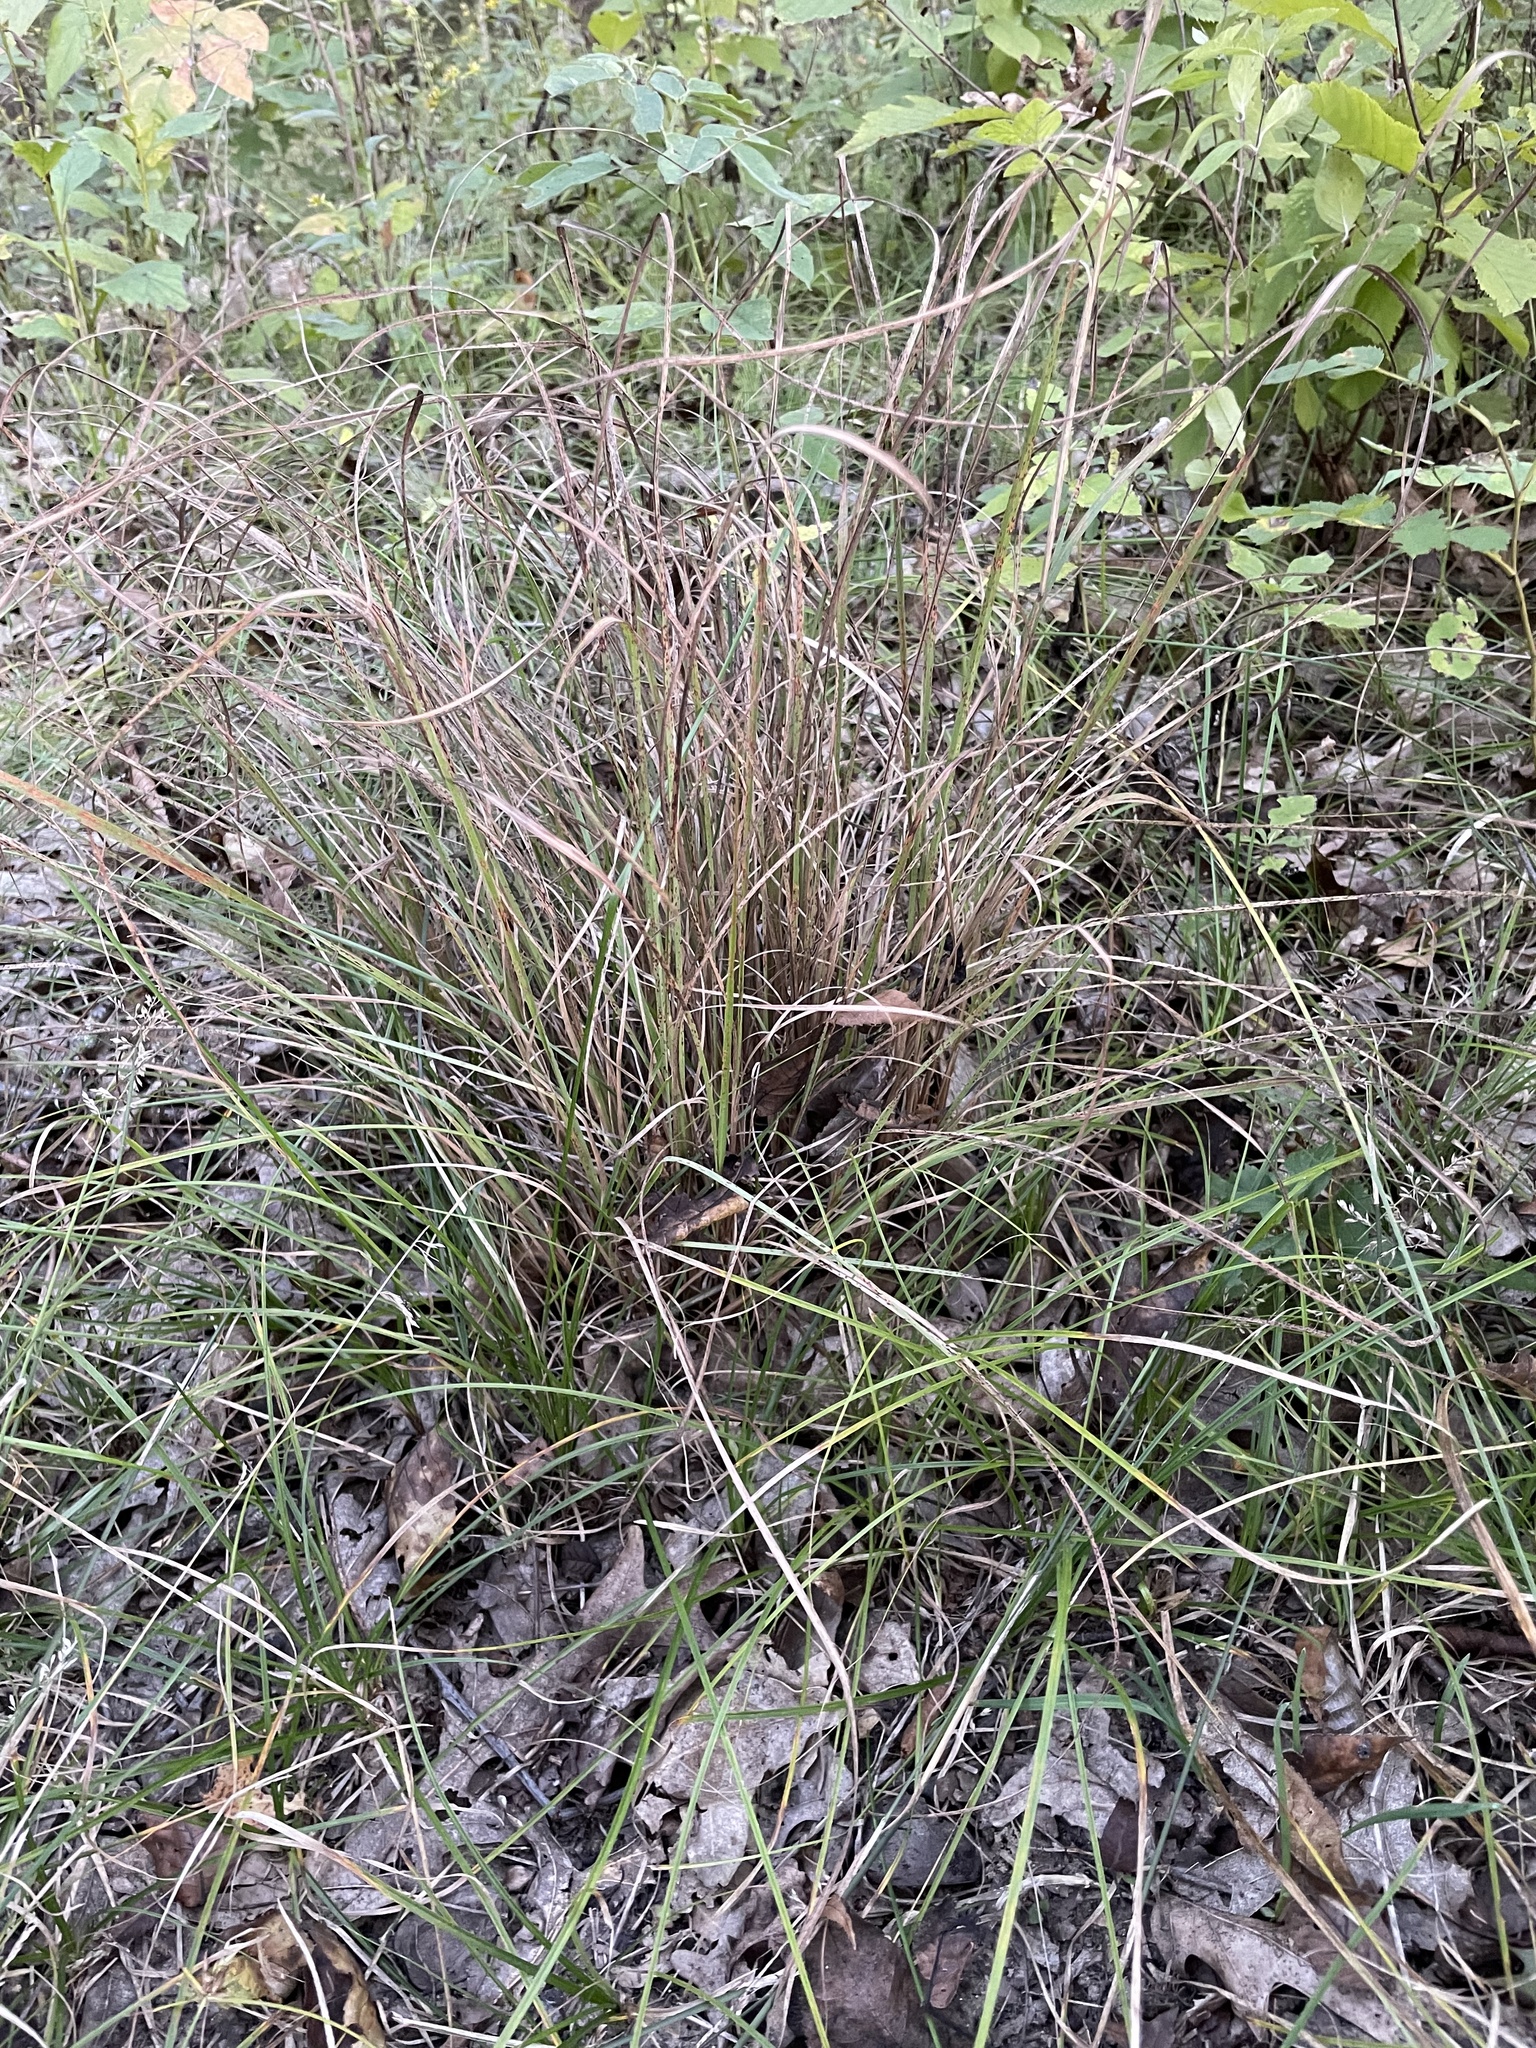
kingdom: Plantae
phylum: Tracheophyta
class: Liliopsida
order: Poales
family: Poaceae
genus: Sporobolus
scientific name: Sporobolus heterolepis
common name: Prairie dropseed
